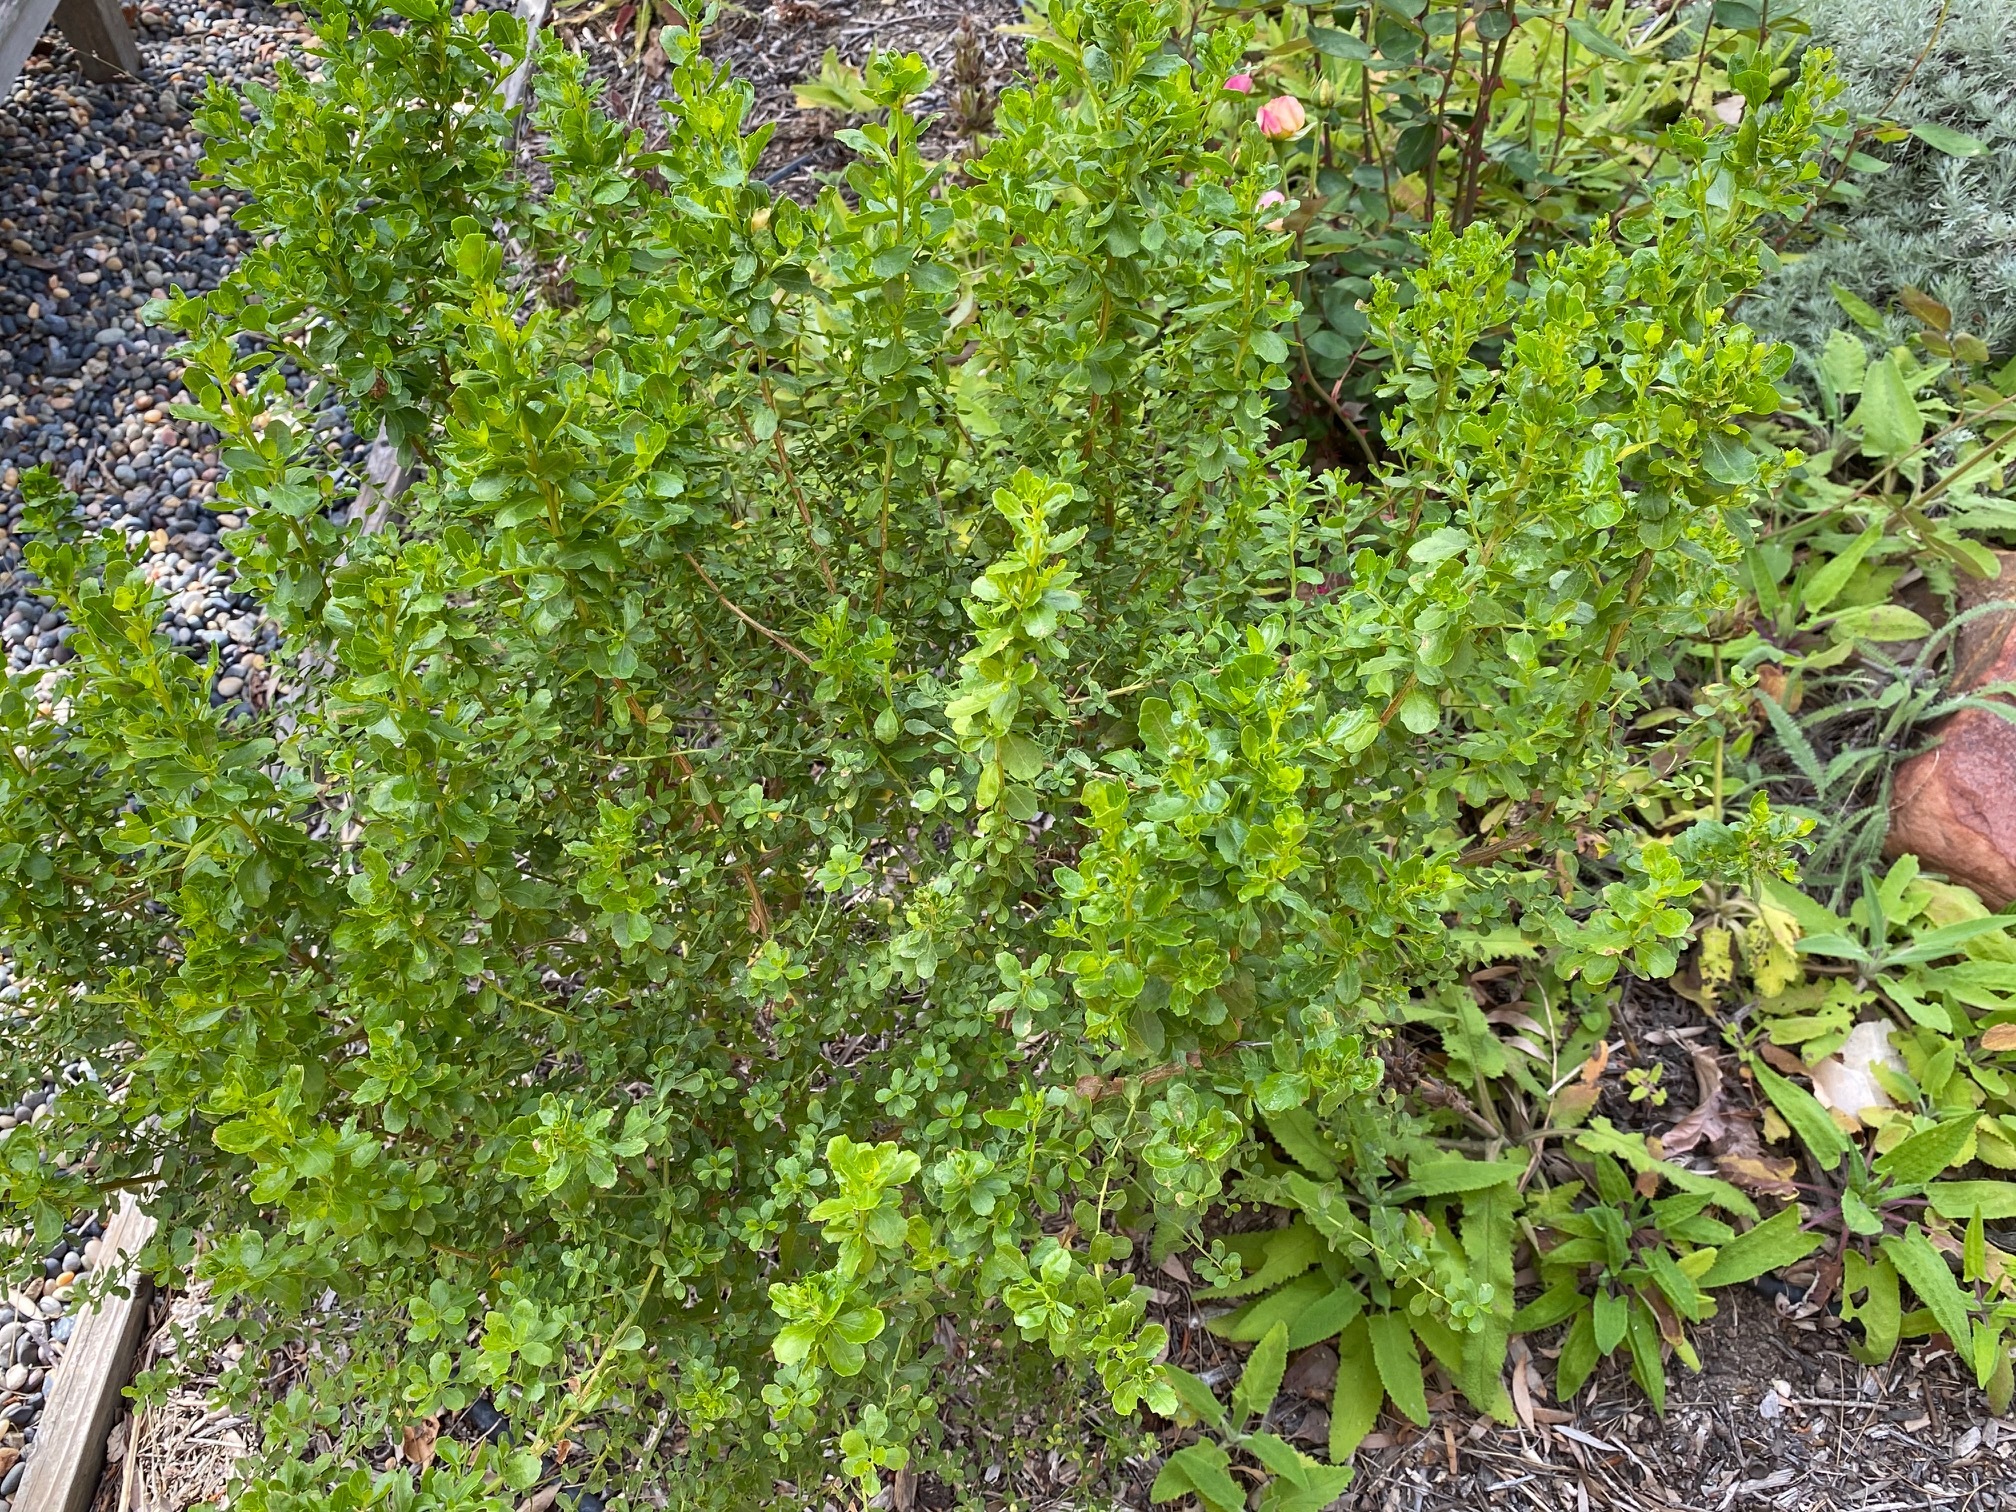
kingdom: Plantae
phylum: Tracheophyta
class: Magnoliopsida
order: Asterales
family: Asteraceae
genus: Baccharis
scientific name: Baccharis pilularis
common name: Coyotebrush
